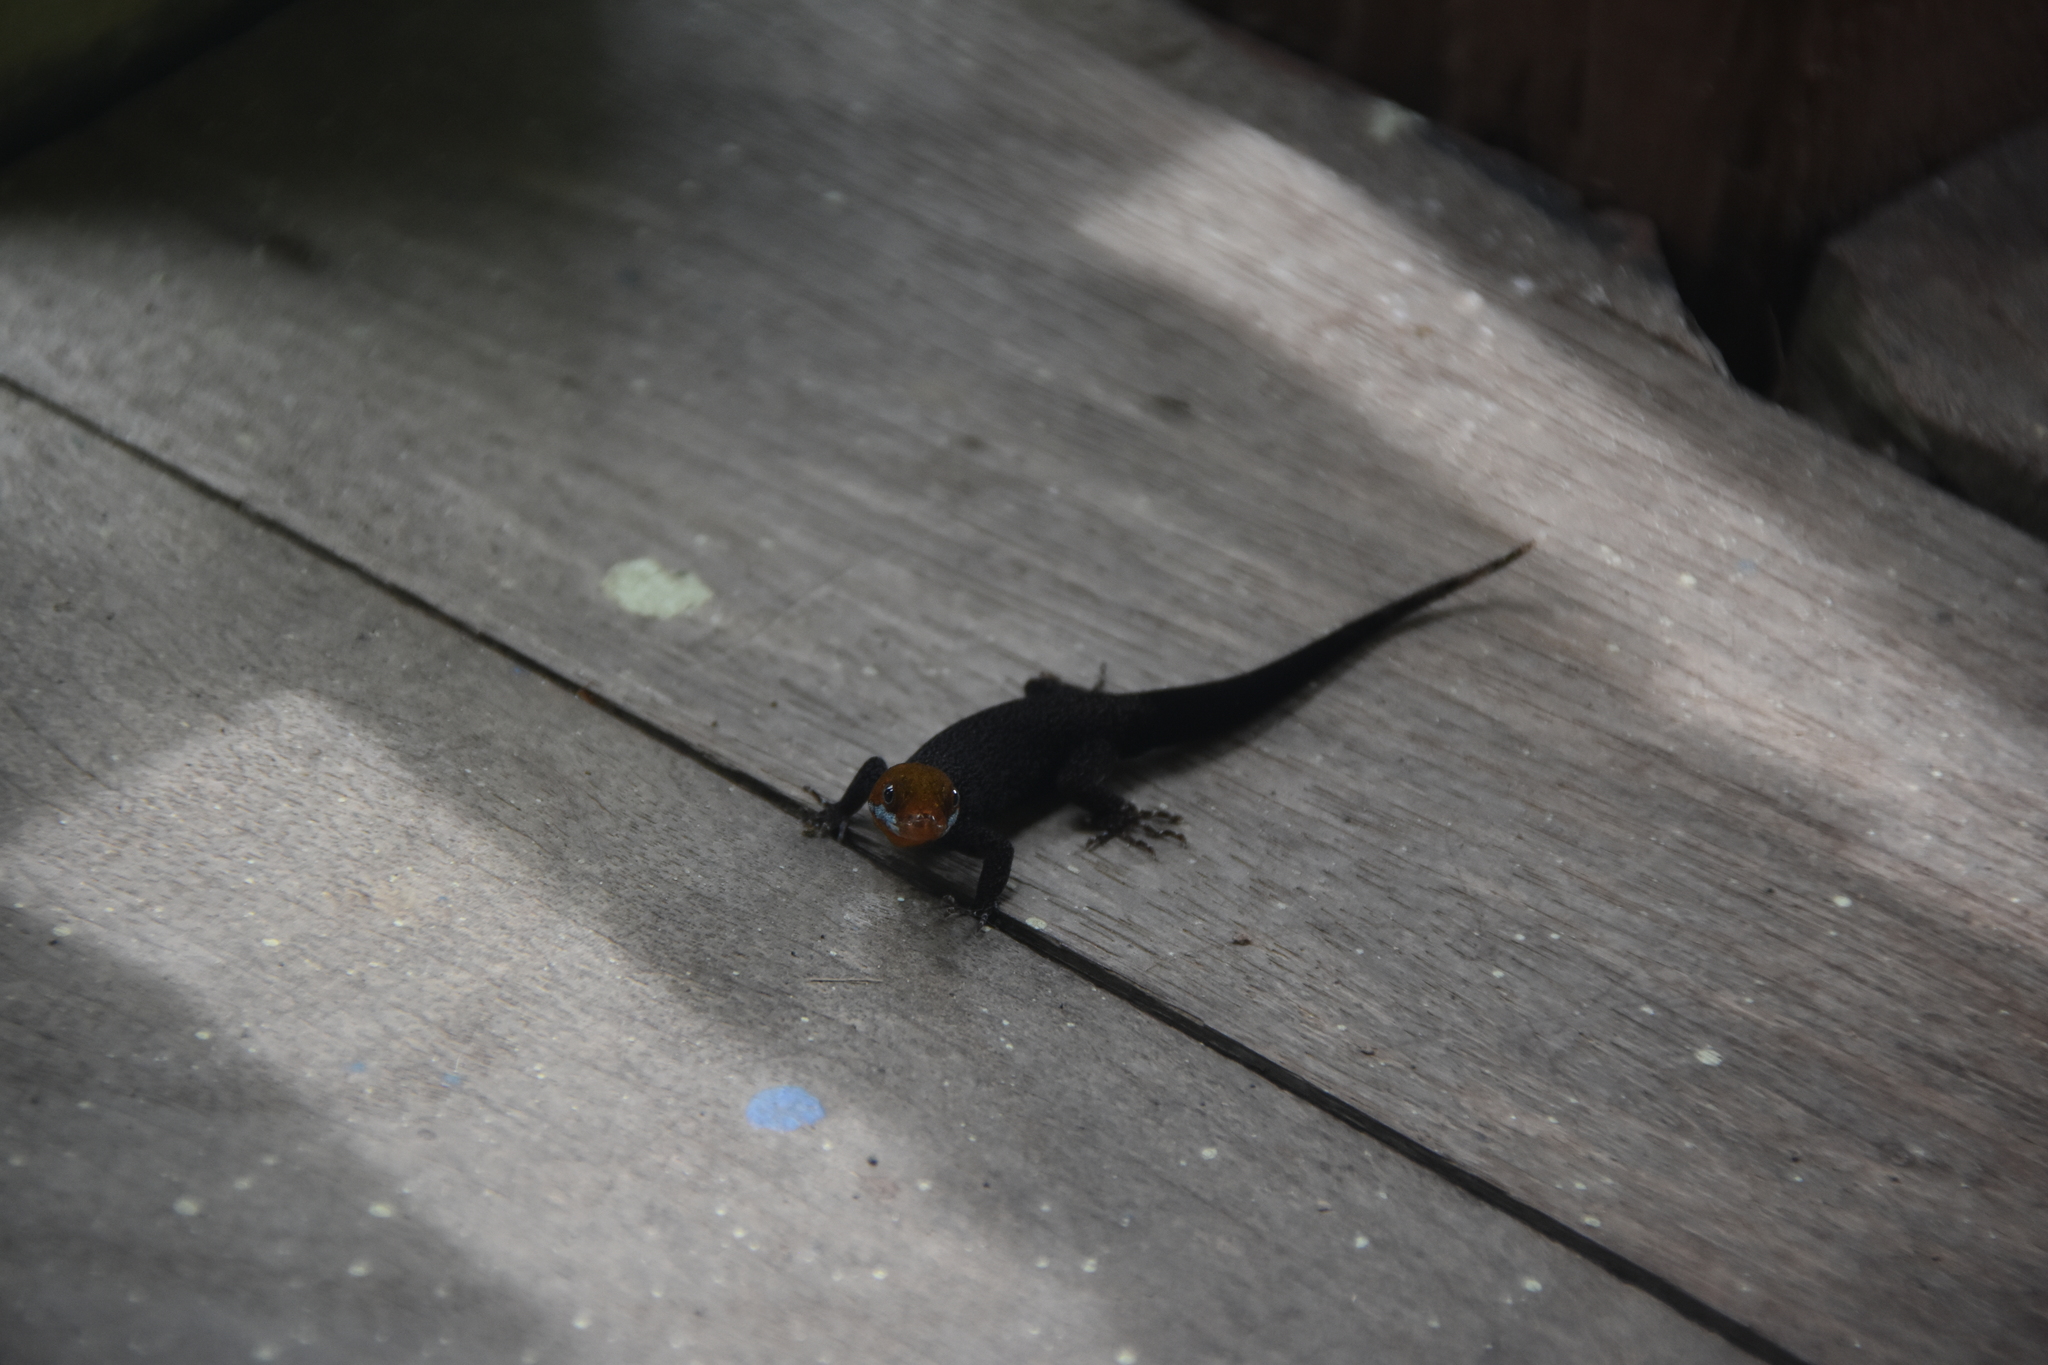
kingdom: Animalia
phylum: Chordata
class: Squamata
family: Sphaerodactylidae
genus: Gonatodes
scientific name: Gonatodes albogularis
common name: Yellow-headed gecko
